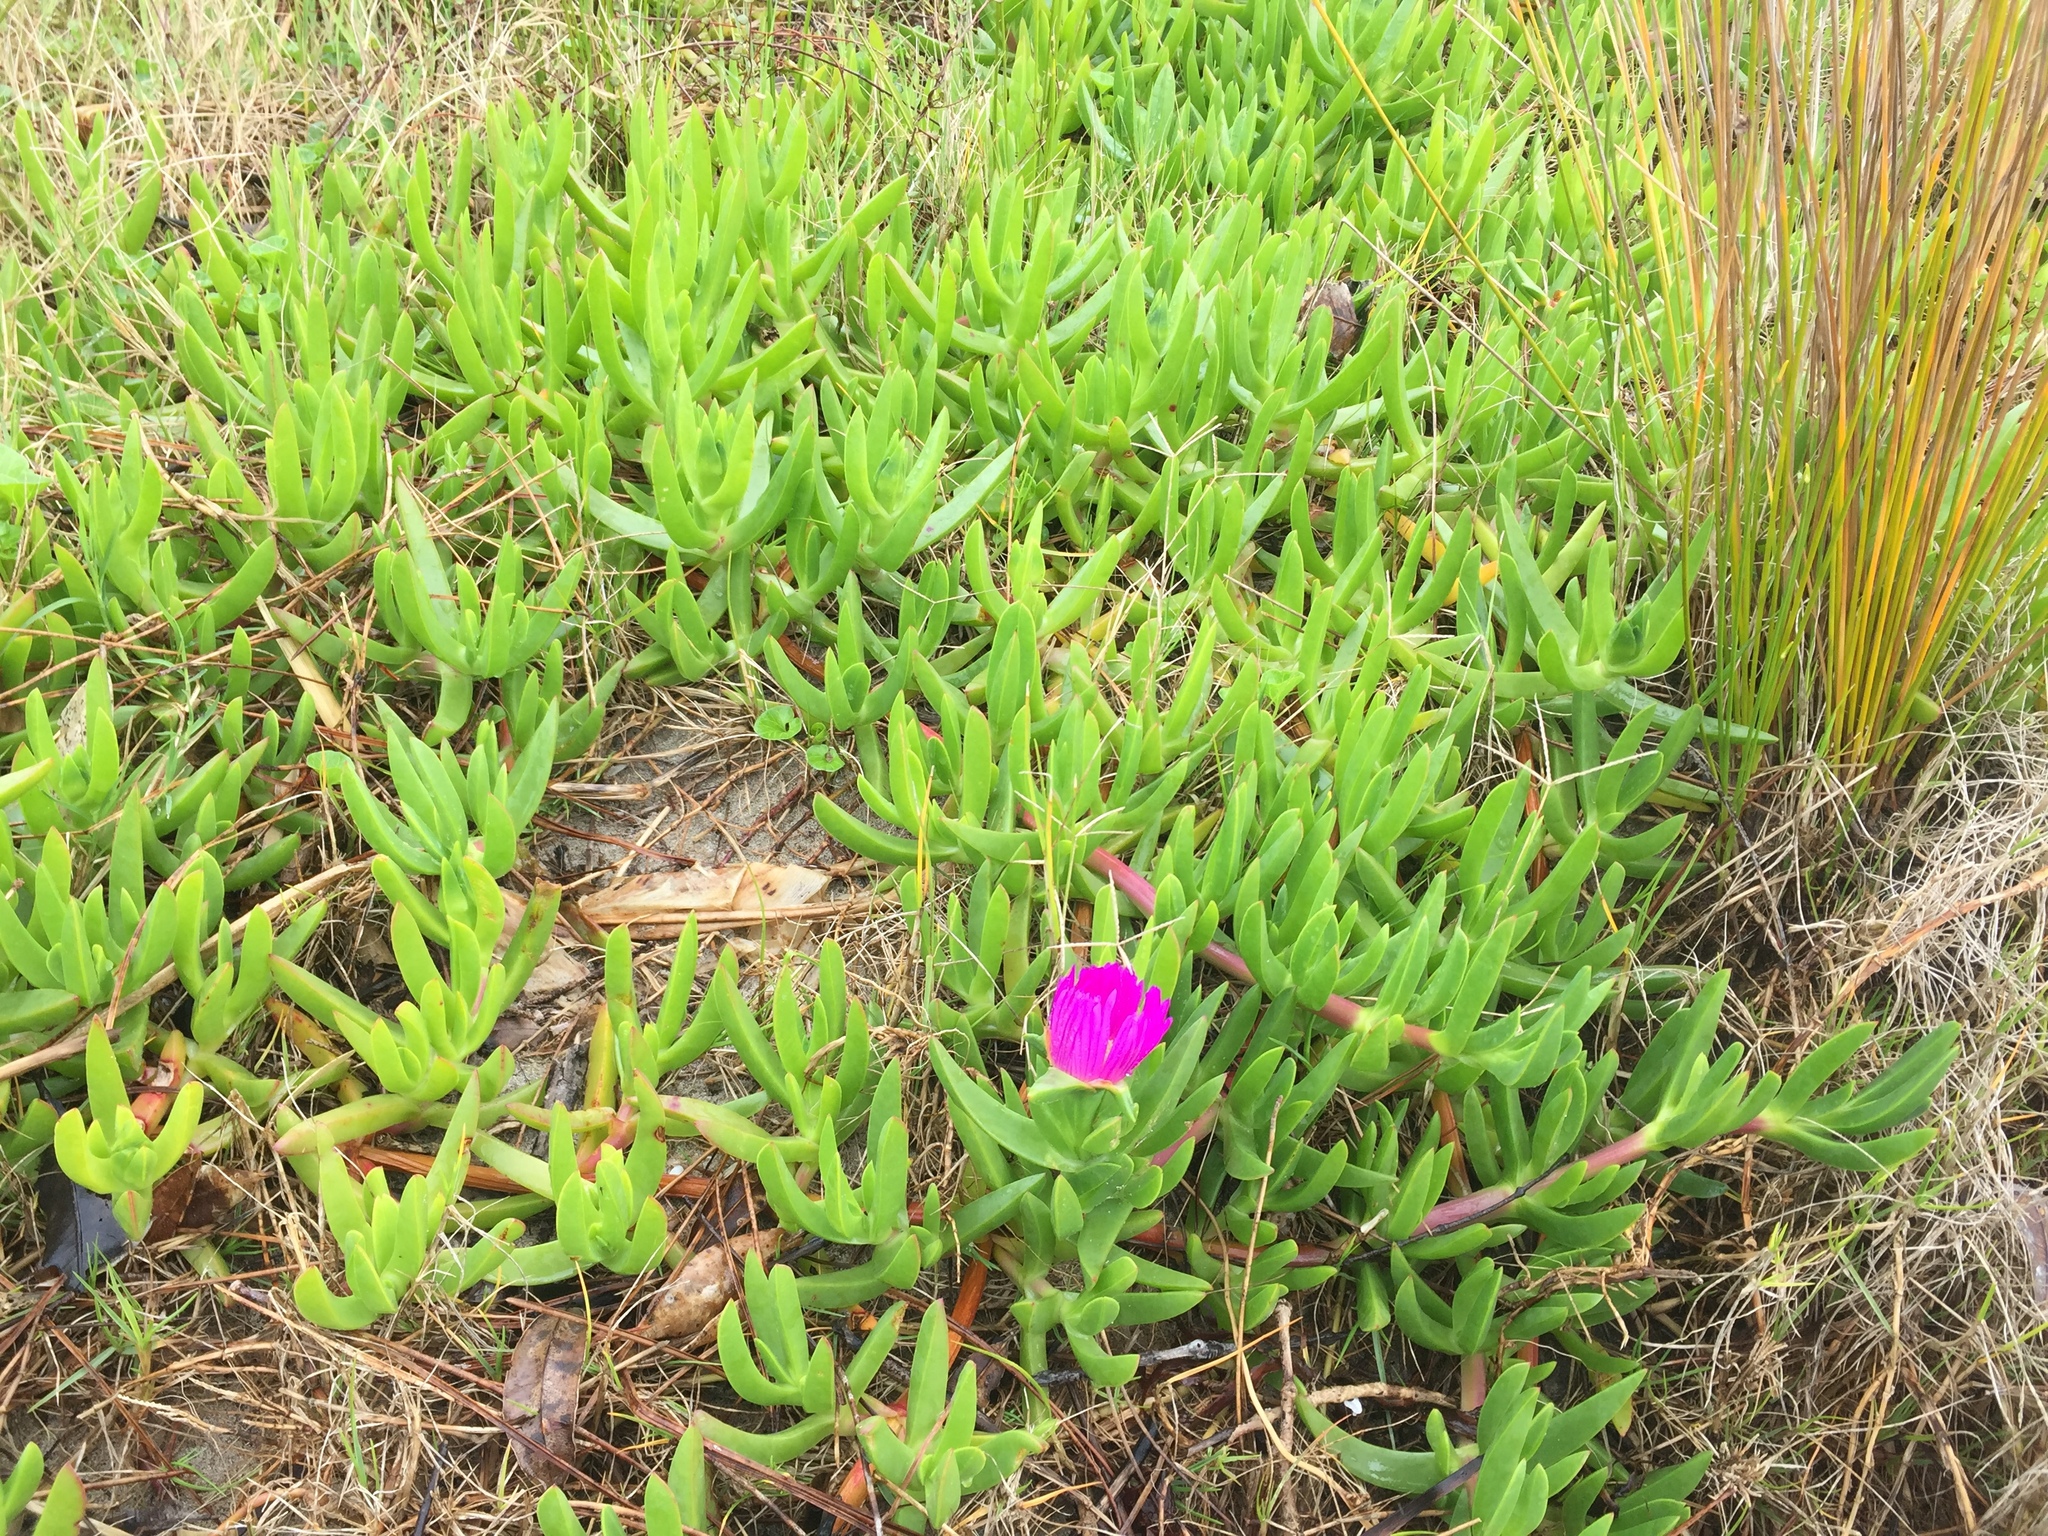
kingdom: Plantae
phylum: Tracheophyta
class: Magnoliopsida
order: Caryophyllales
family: Aizoaceae
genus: Carpobrotus
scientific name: Carpobrotus chilensis
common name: Sea fig
